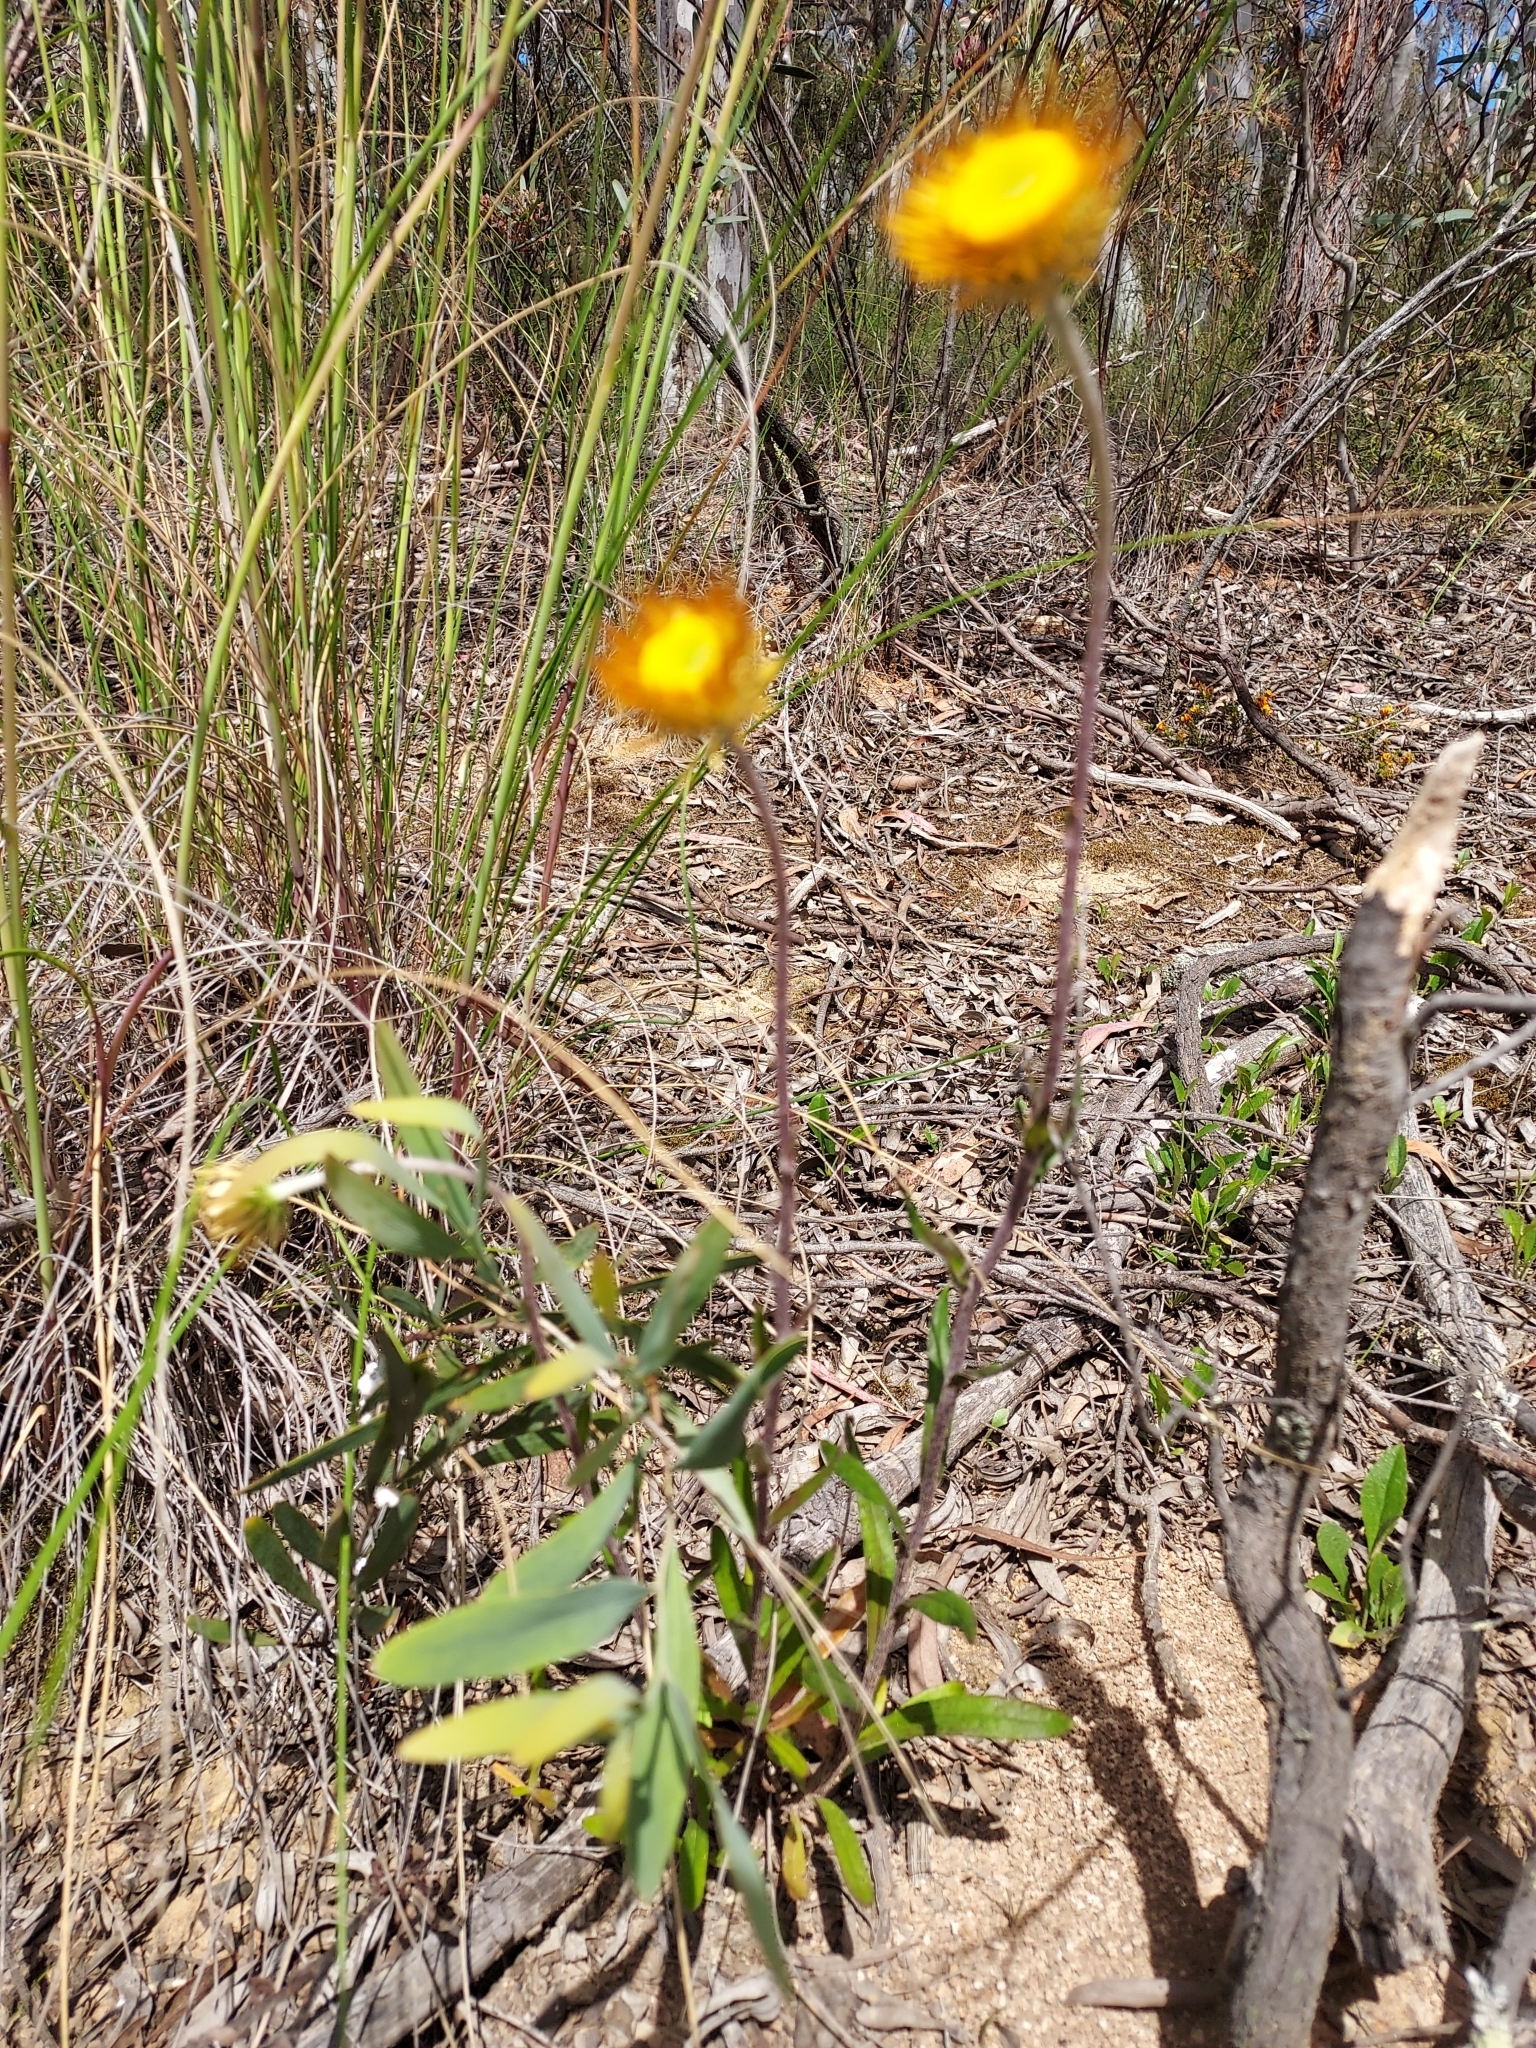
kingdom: Plantae
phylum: Tracheophyta
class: Magnoliopsida
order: Asterales
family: Asteraceae
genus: Coronidium
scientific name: Coronidium oxylepis
